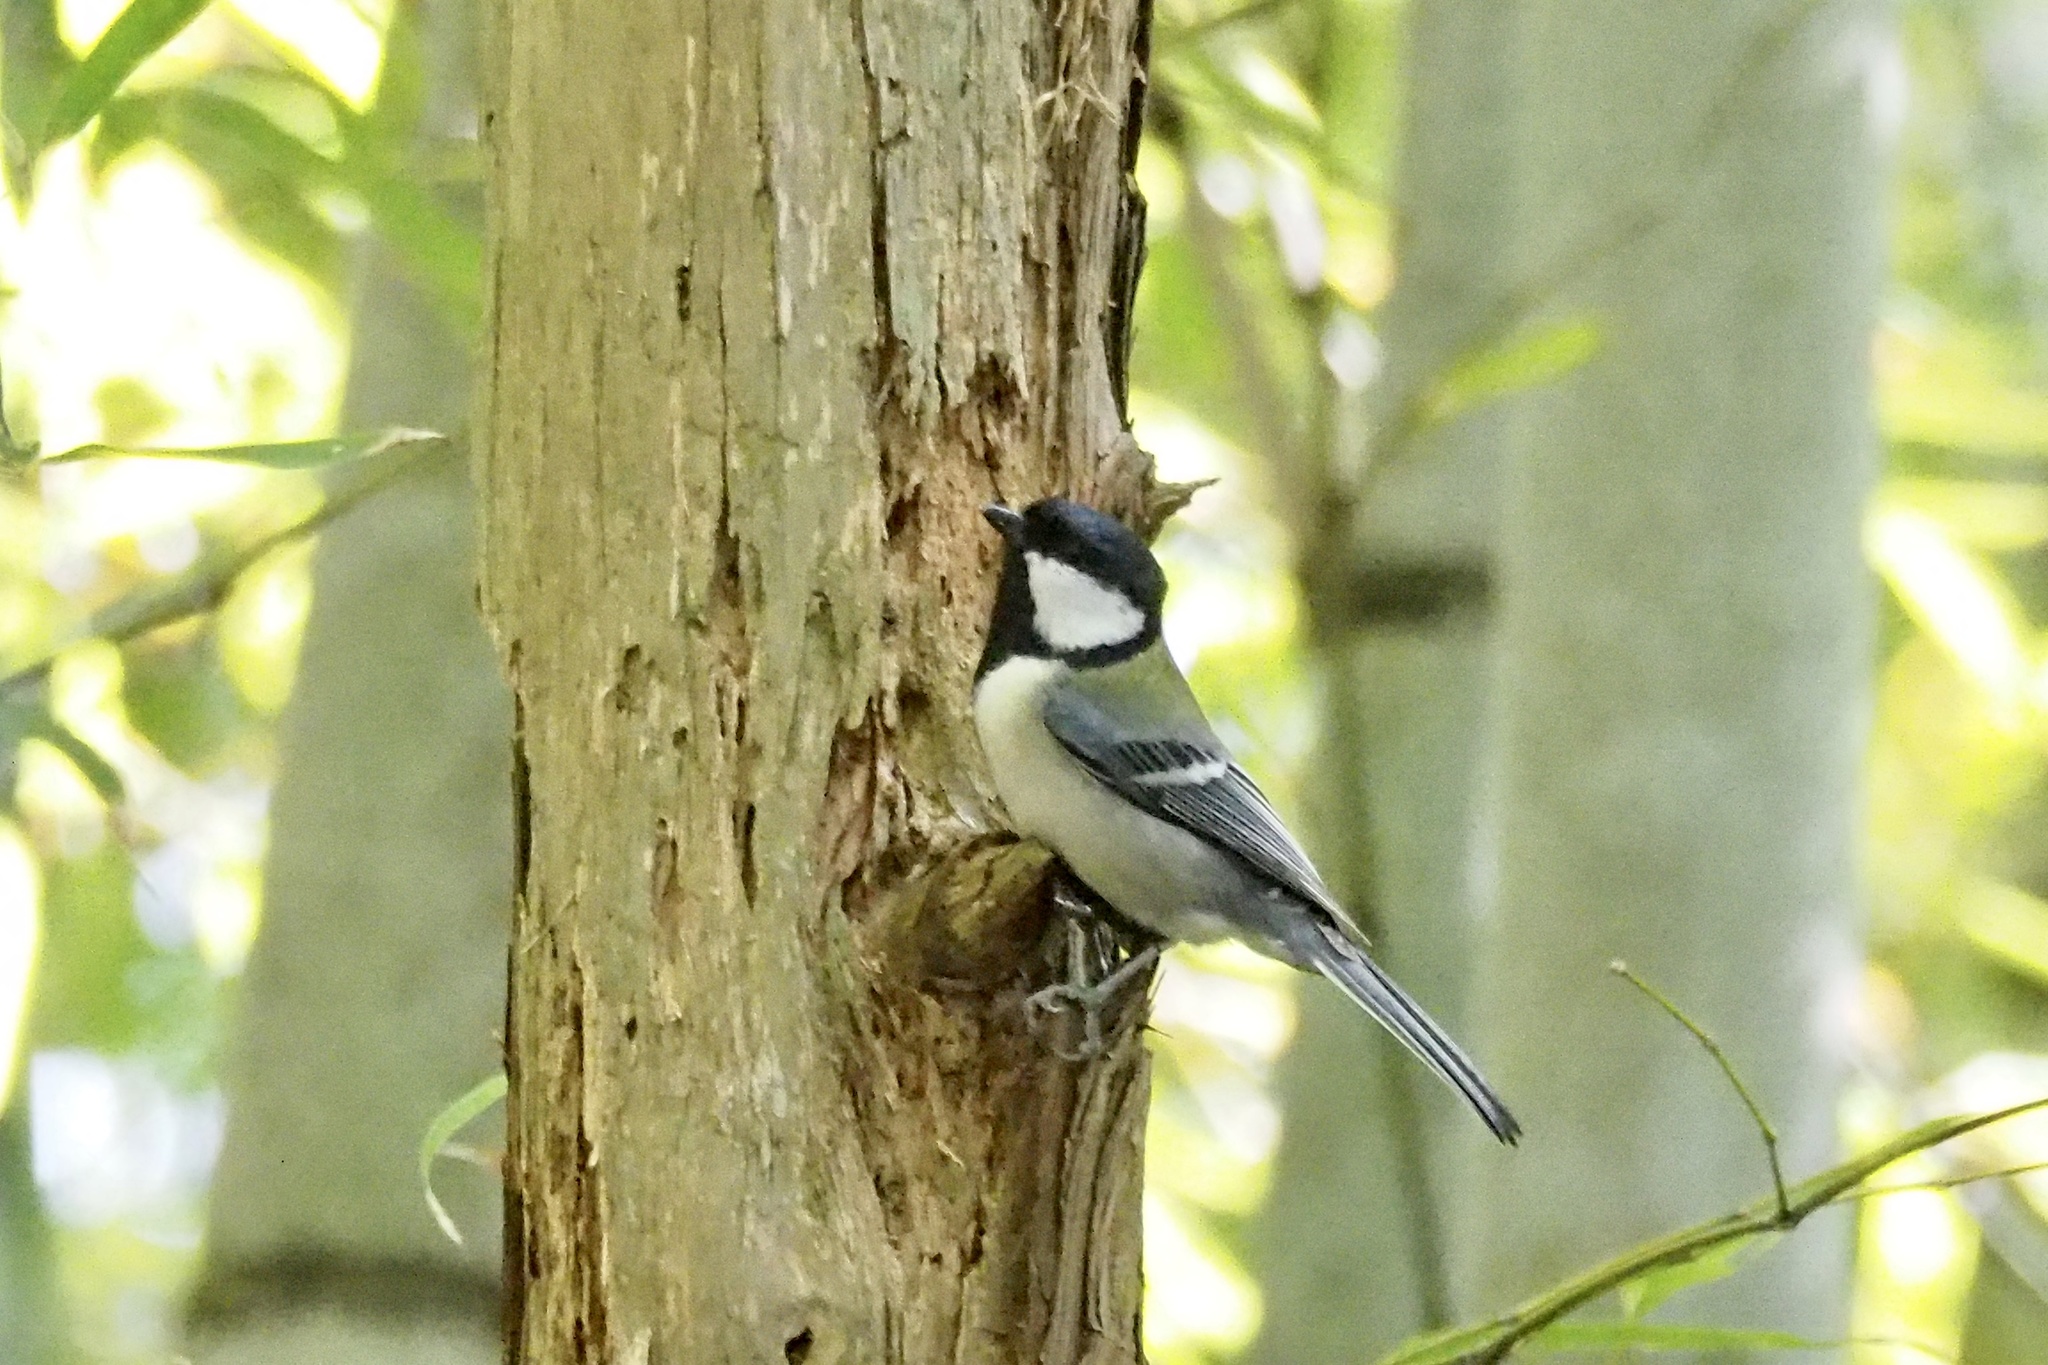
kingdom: Animalia
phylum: Chordata
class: Aves
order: Passeriformes
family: Paridae
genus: Parus
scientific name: Parus minor
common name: Japanese tit
